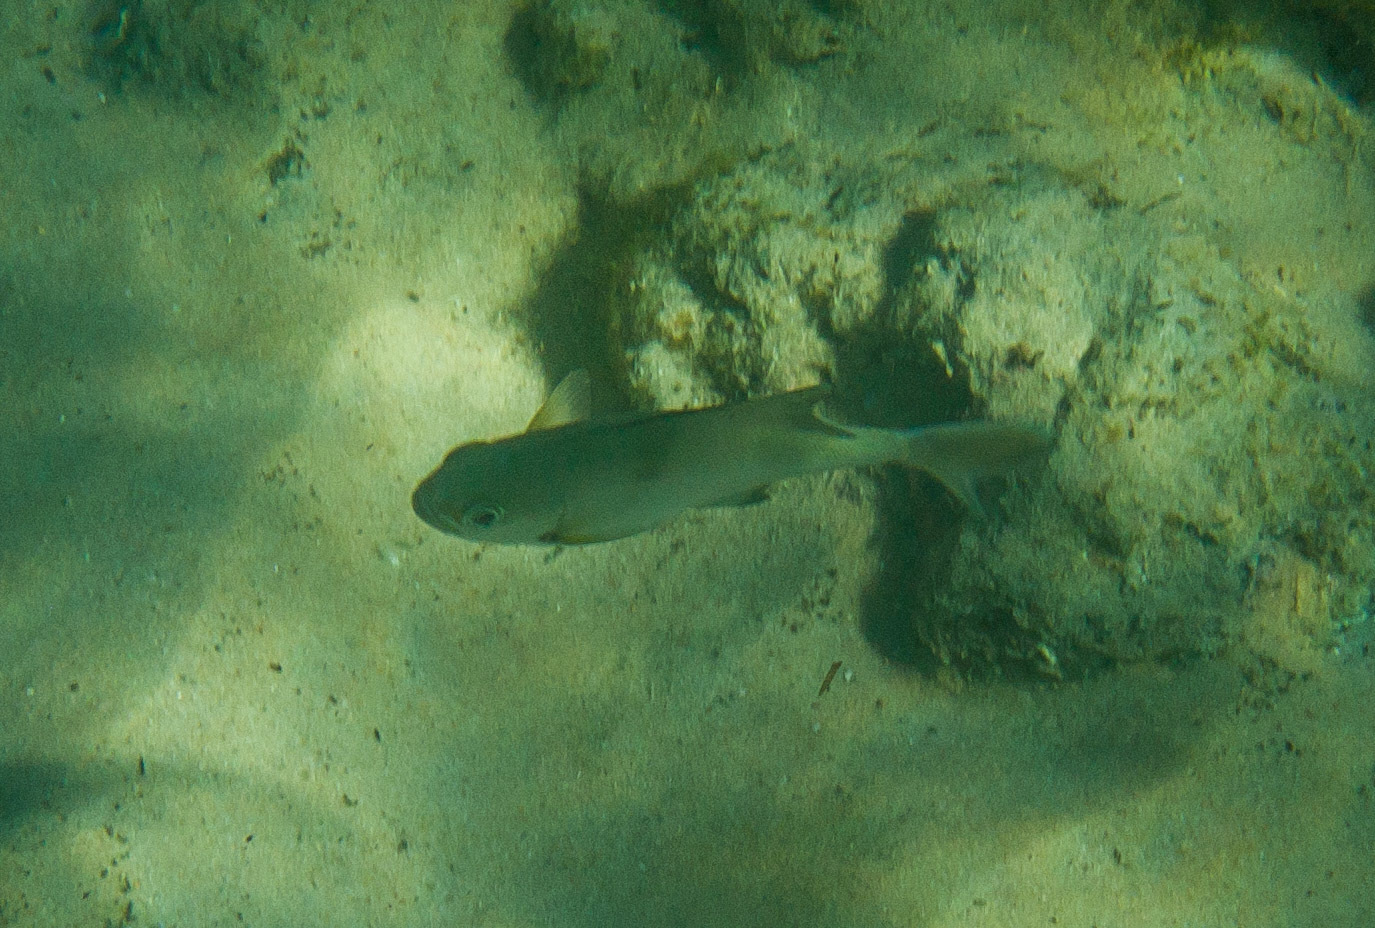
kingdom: Animalia
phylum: Chordata
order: Perciformes
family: Kyphosidae
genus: Scorpis
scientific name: Scorpis aequipinnis
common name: Sea sweep
